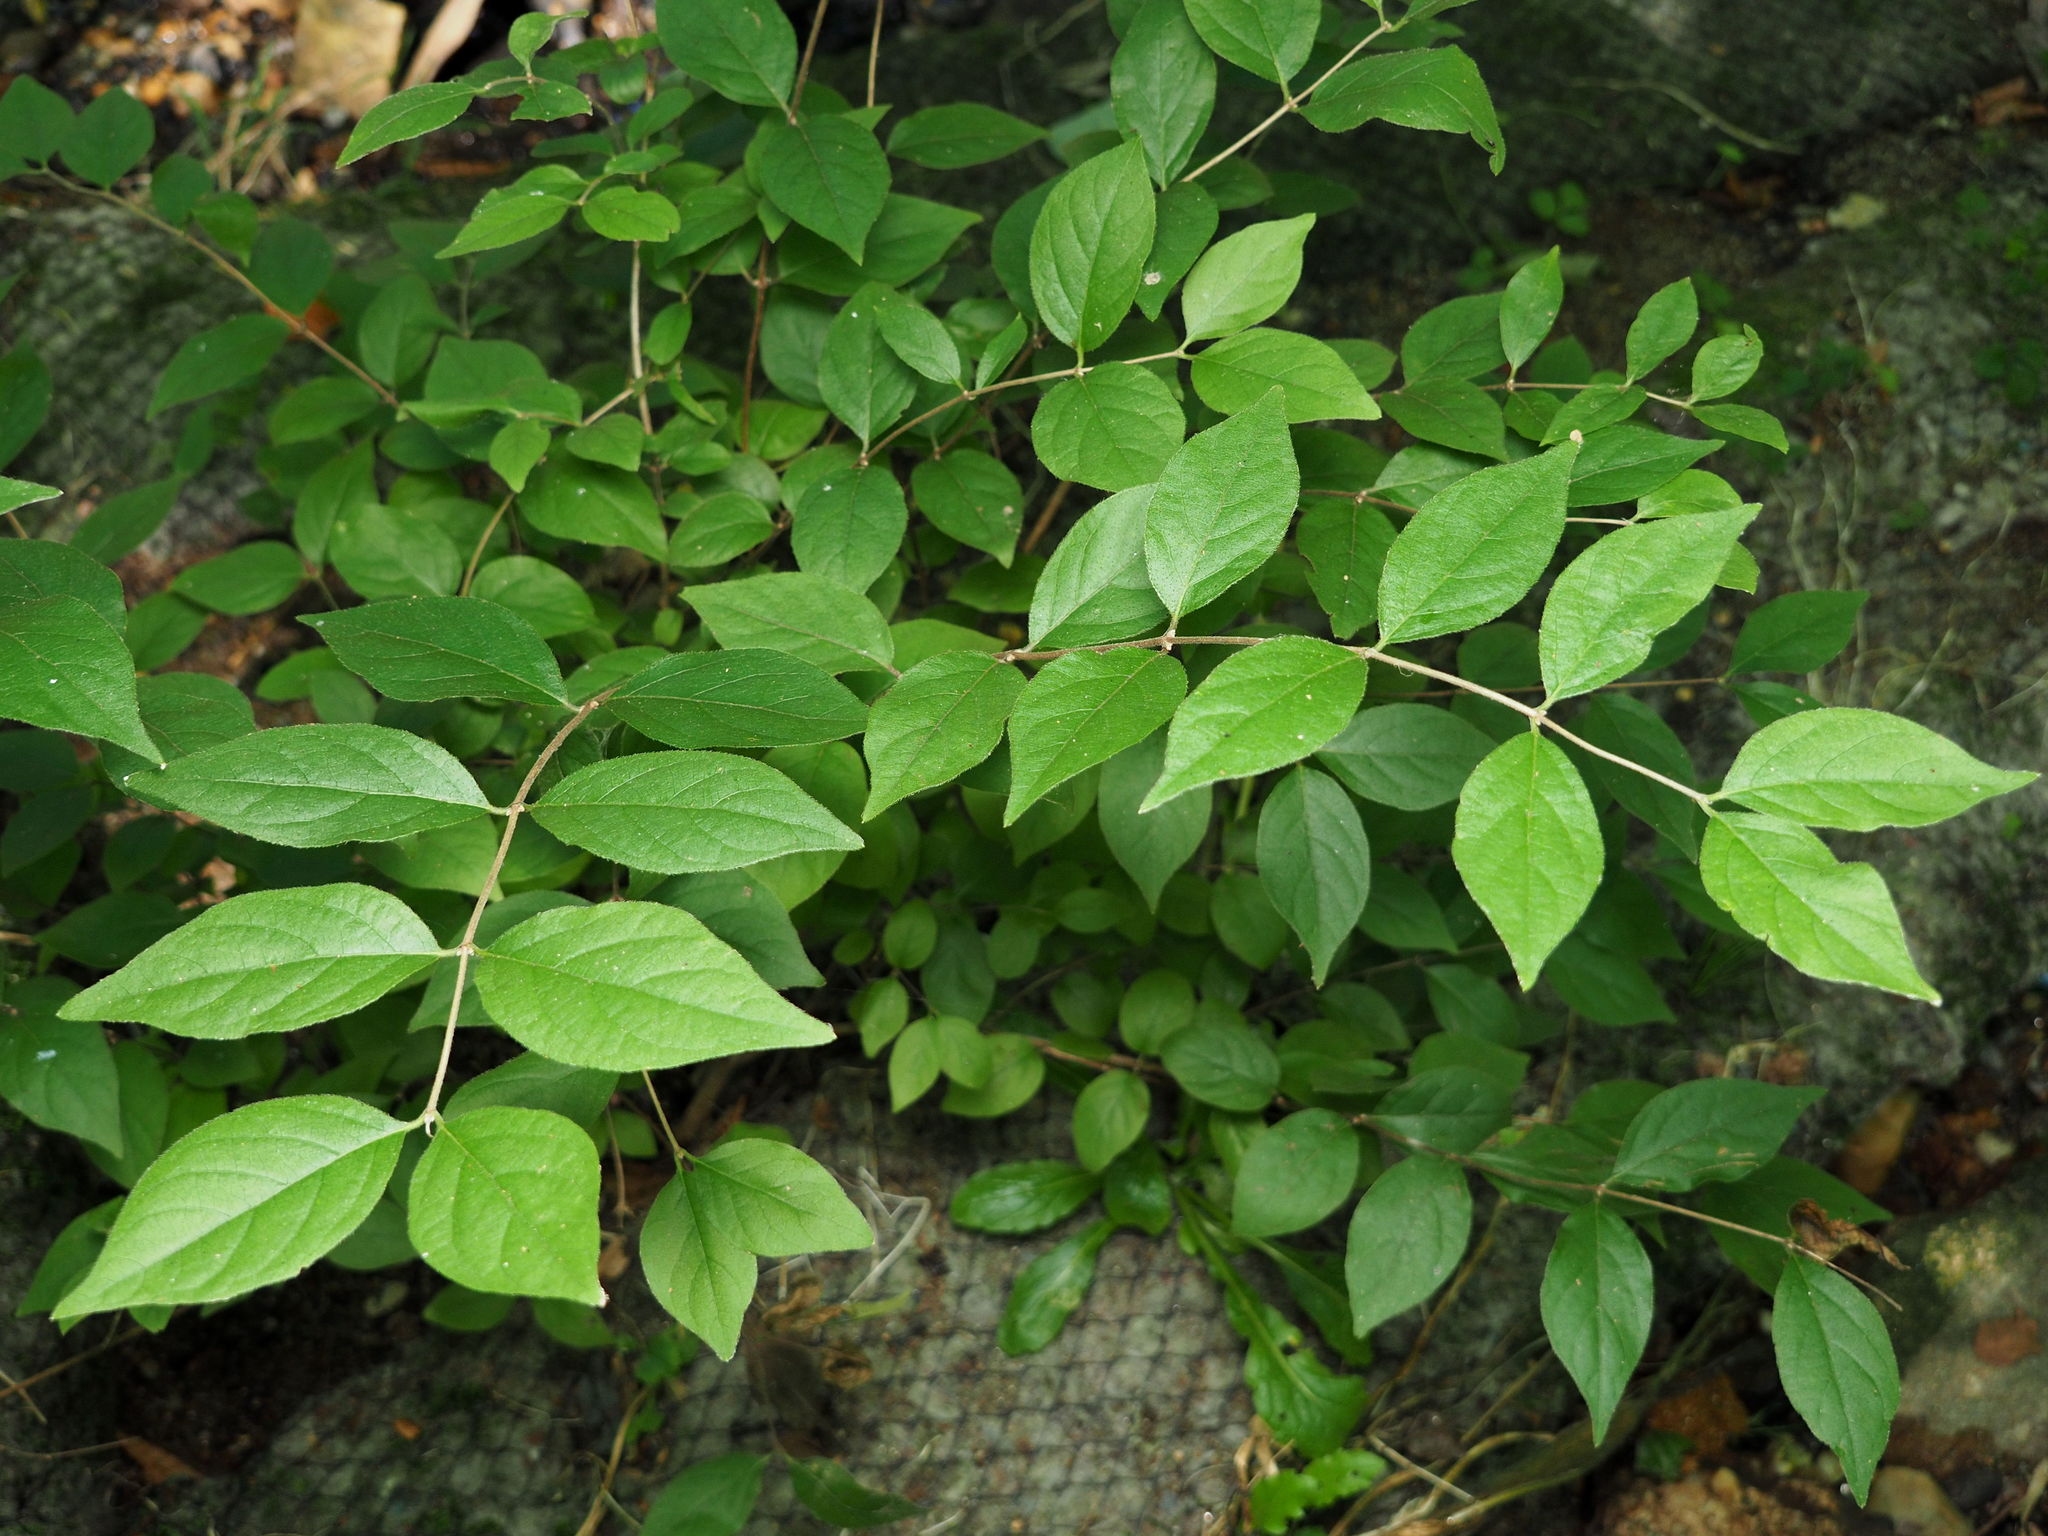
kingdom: Plantae
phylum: Tracheophyta
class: Magnoliopsida
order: Dipsacales
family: Caprifoliaceae
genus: Lonicera
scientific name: Lonicera maackii
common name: Amur honeysuckle
